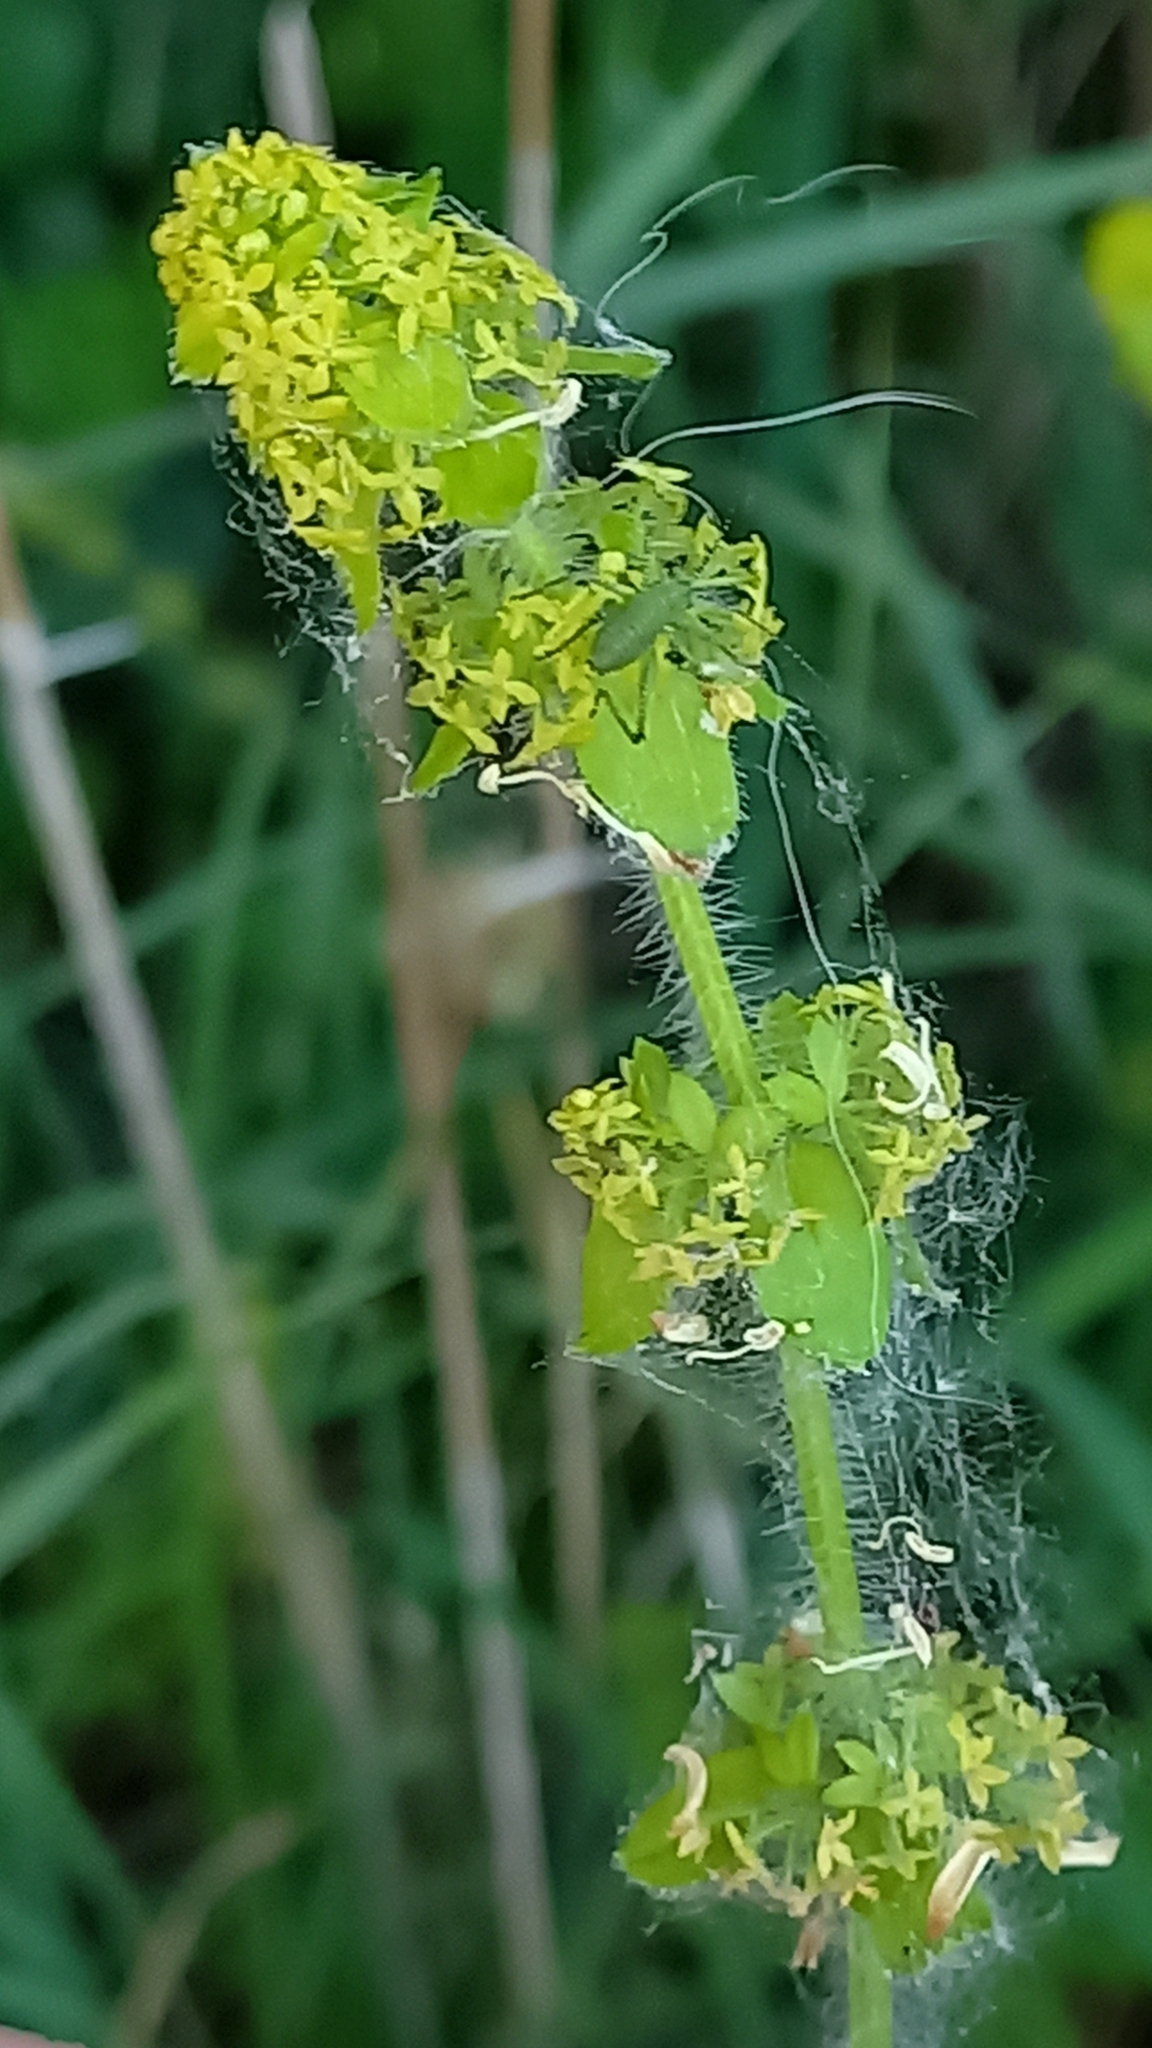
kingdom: Plantae
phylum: Tracheophyta
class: Magnoliopsida
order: Gentianales
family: Rubiaceae
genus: Cruciata
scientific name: Cruciata laevipes
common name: Crosswort
